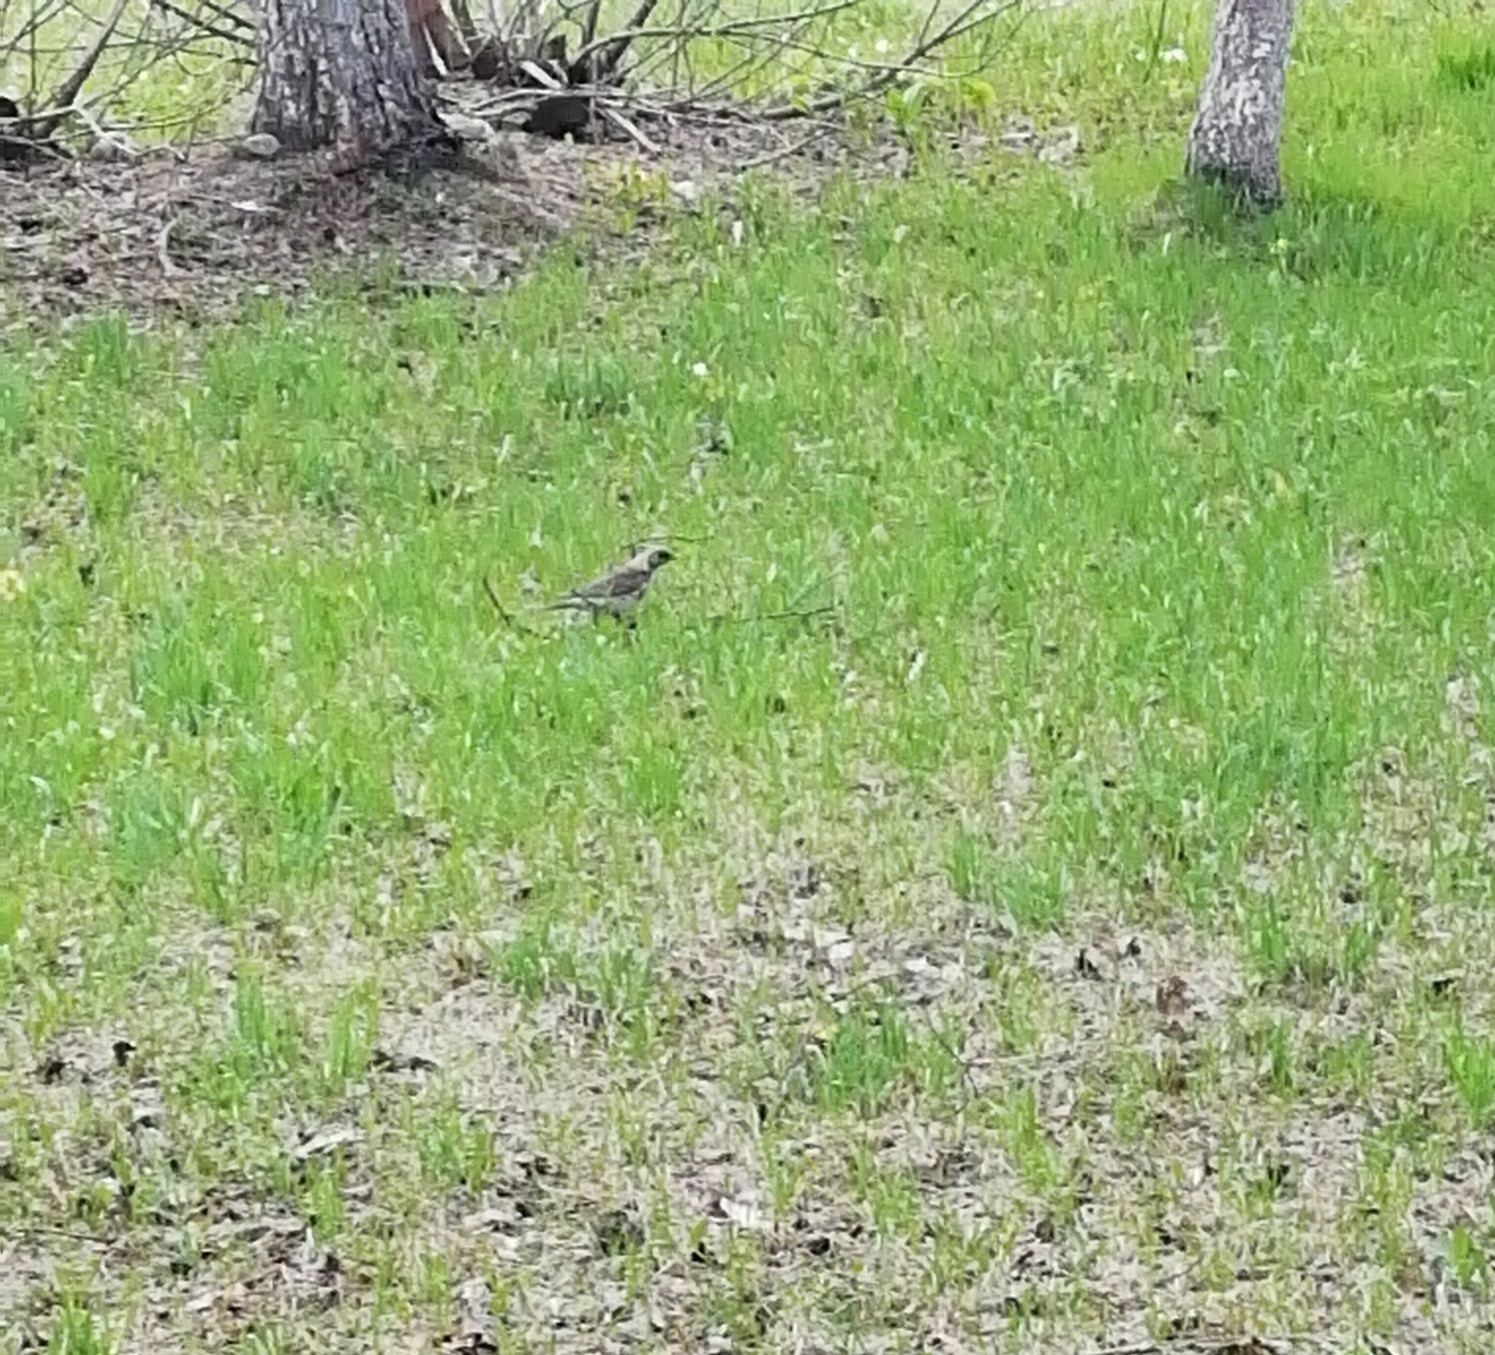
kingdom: Animalia
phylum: Chordata
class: Aves
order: Passeriformes
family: Turdidae
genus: Turdus
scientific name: Turdus pilaris
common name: Fieldfare
